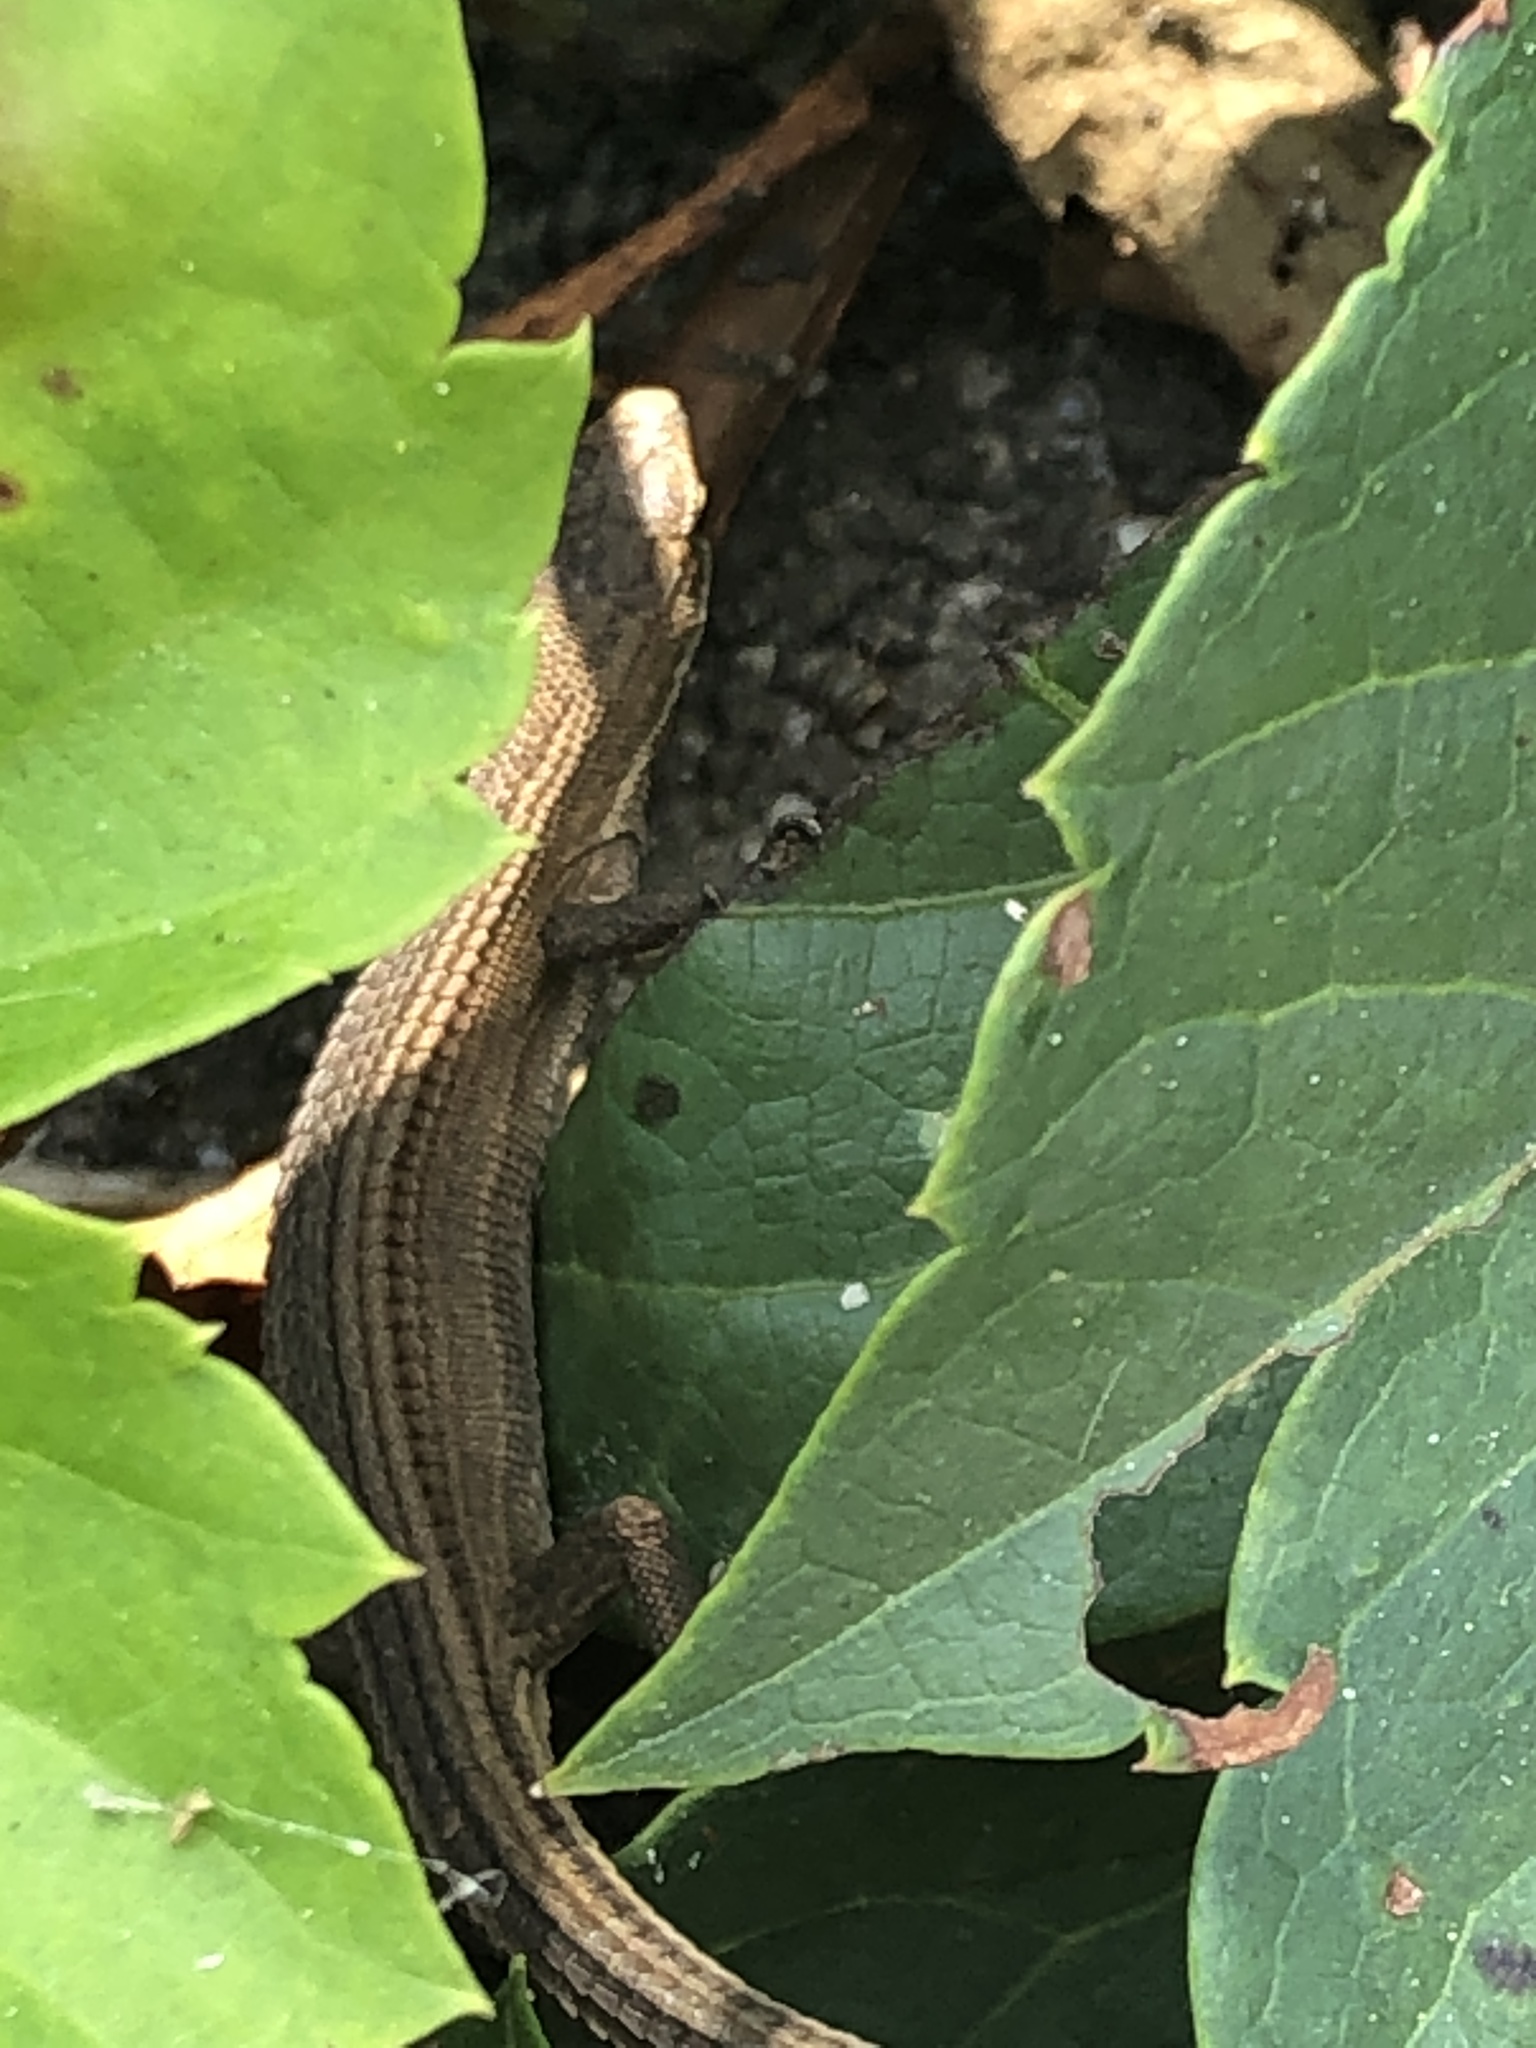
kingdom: Animalia
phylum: Chordata
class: Squamata
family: Lacertidae
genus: Takydromus
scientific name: Takydromus amurensis
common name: Amur grass lizard
